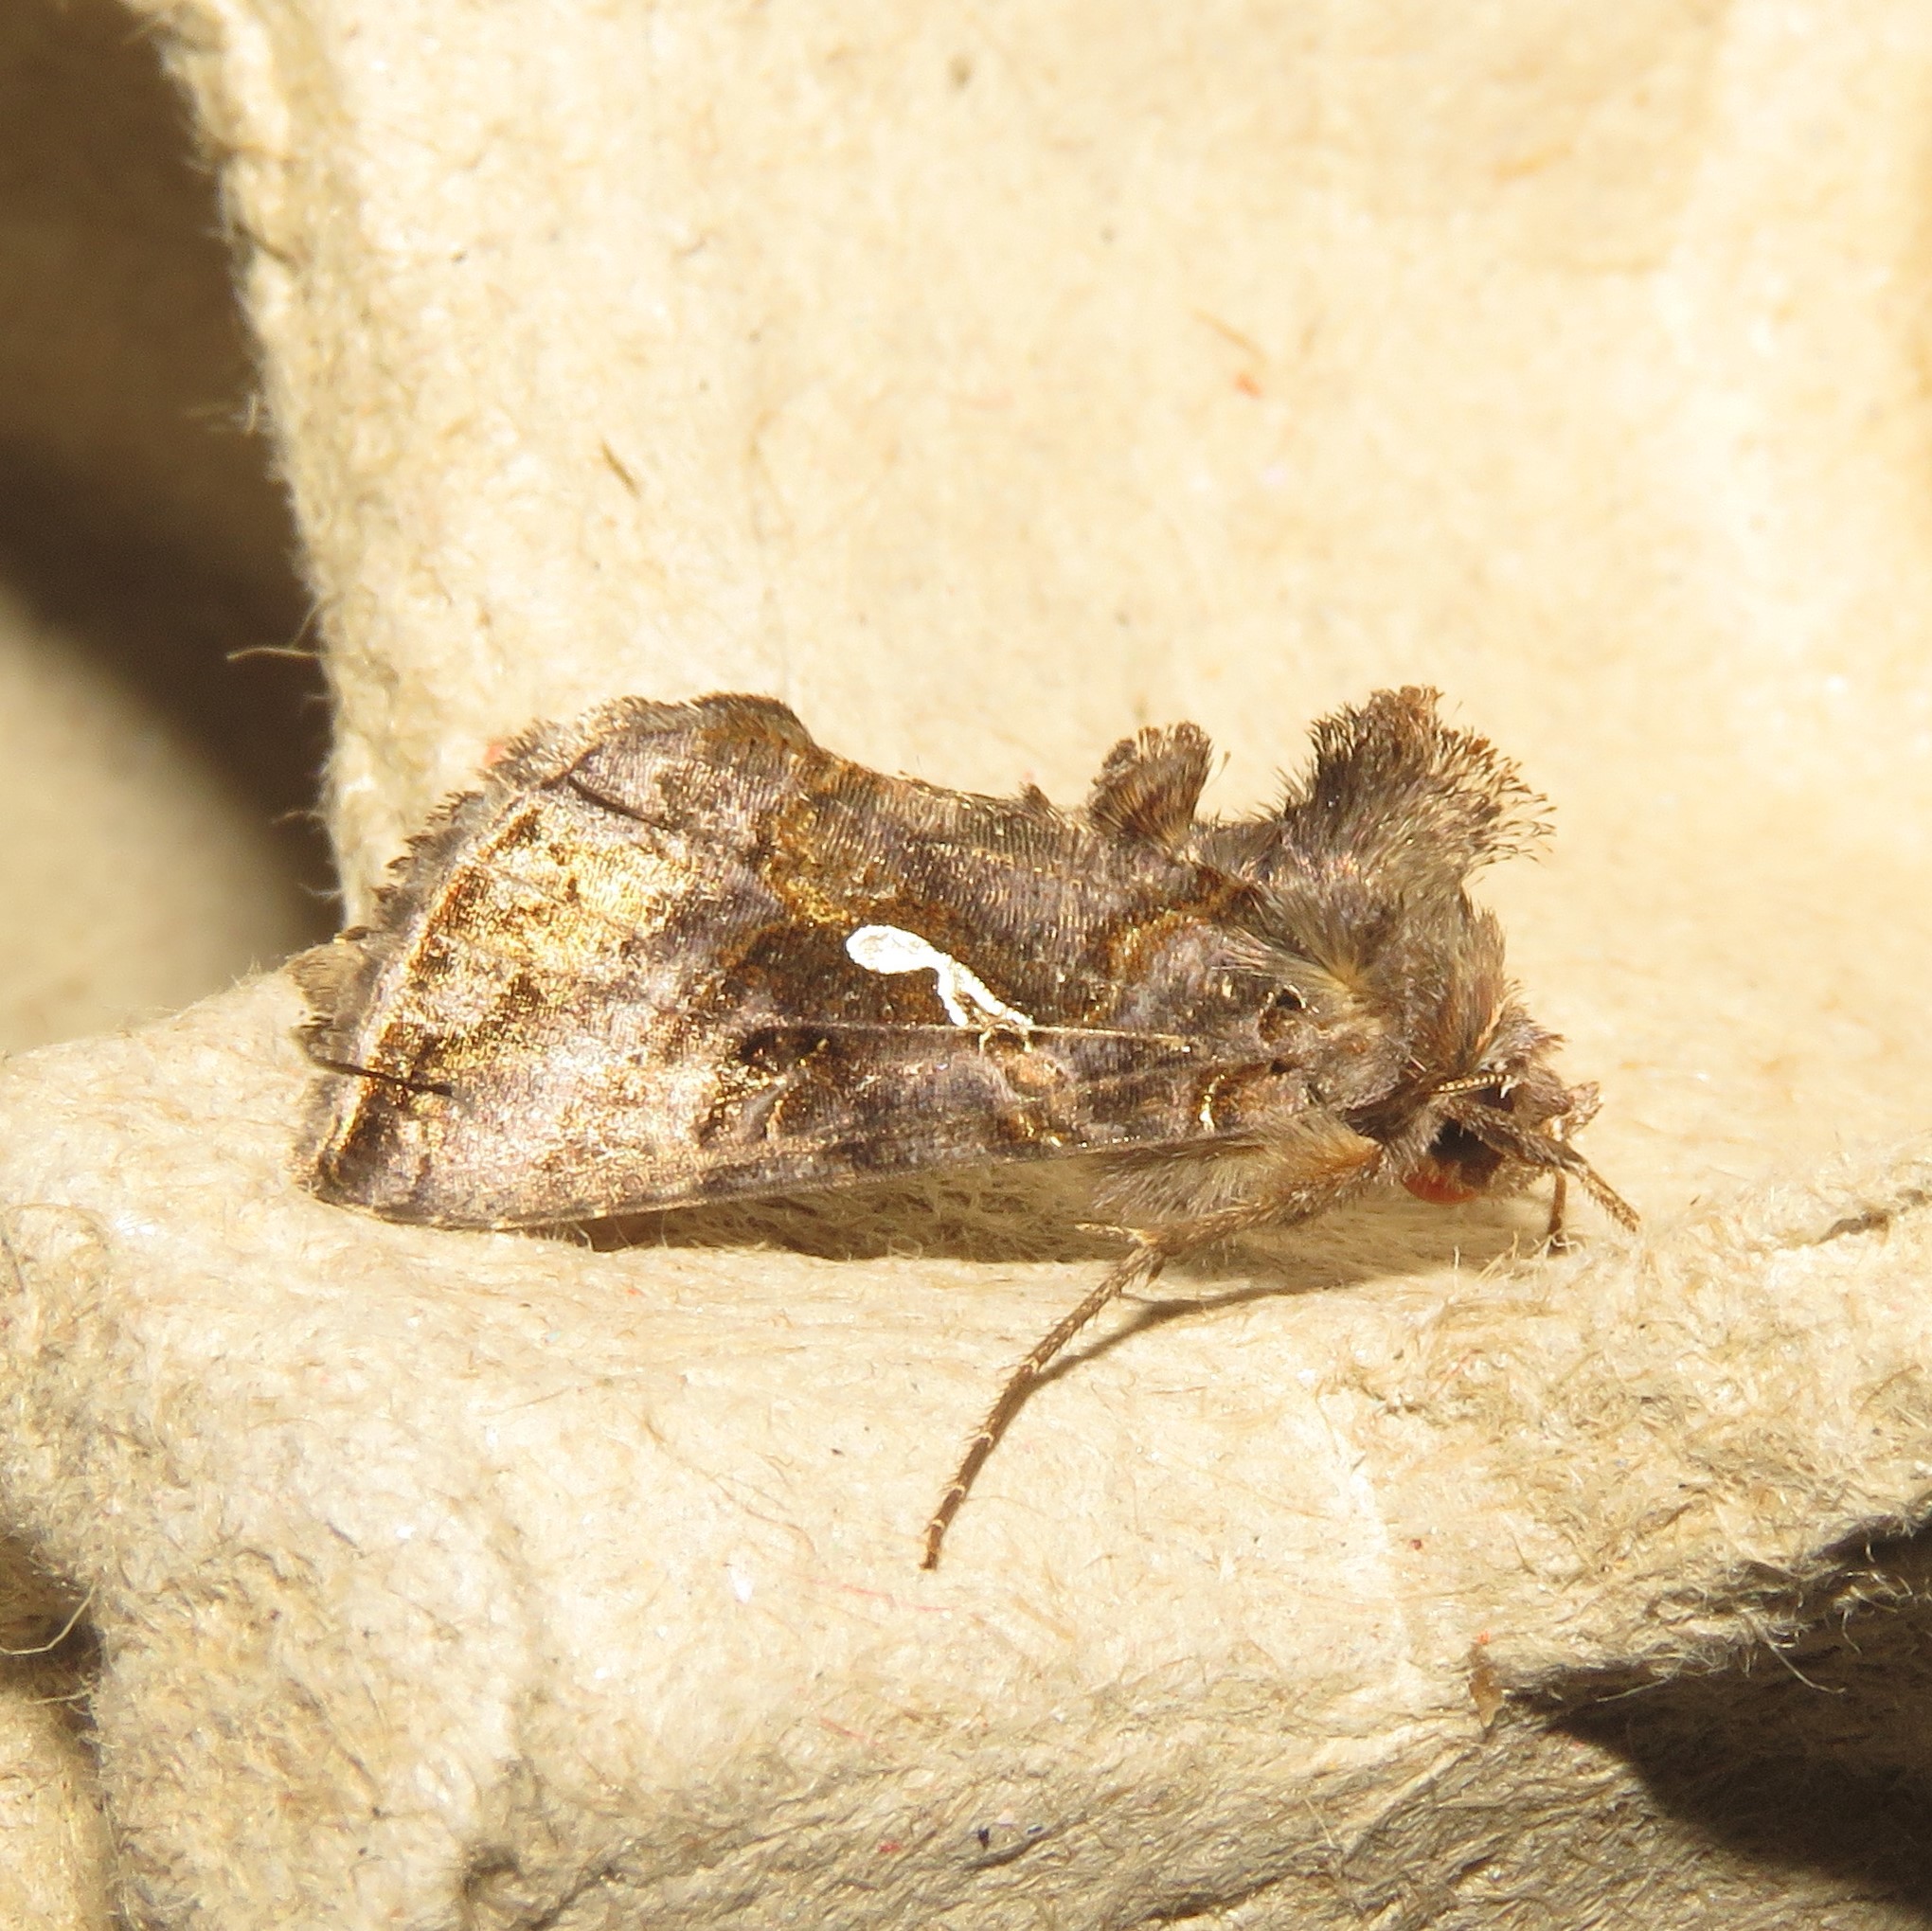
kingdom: Animalia
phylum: Arthropoda
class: Insecta
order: Lepidoptera
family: Noctuidae
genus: Autographa
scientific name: Autographa precationis
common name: Common looper moth
